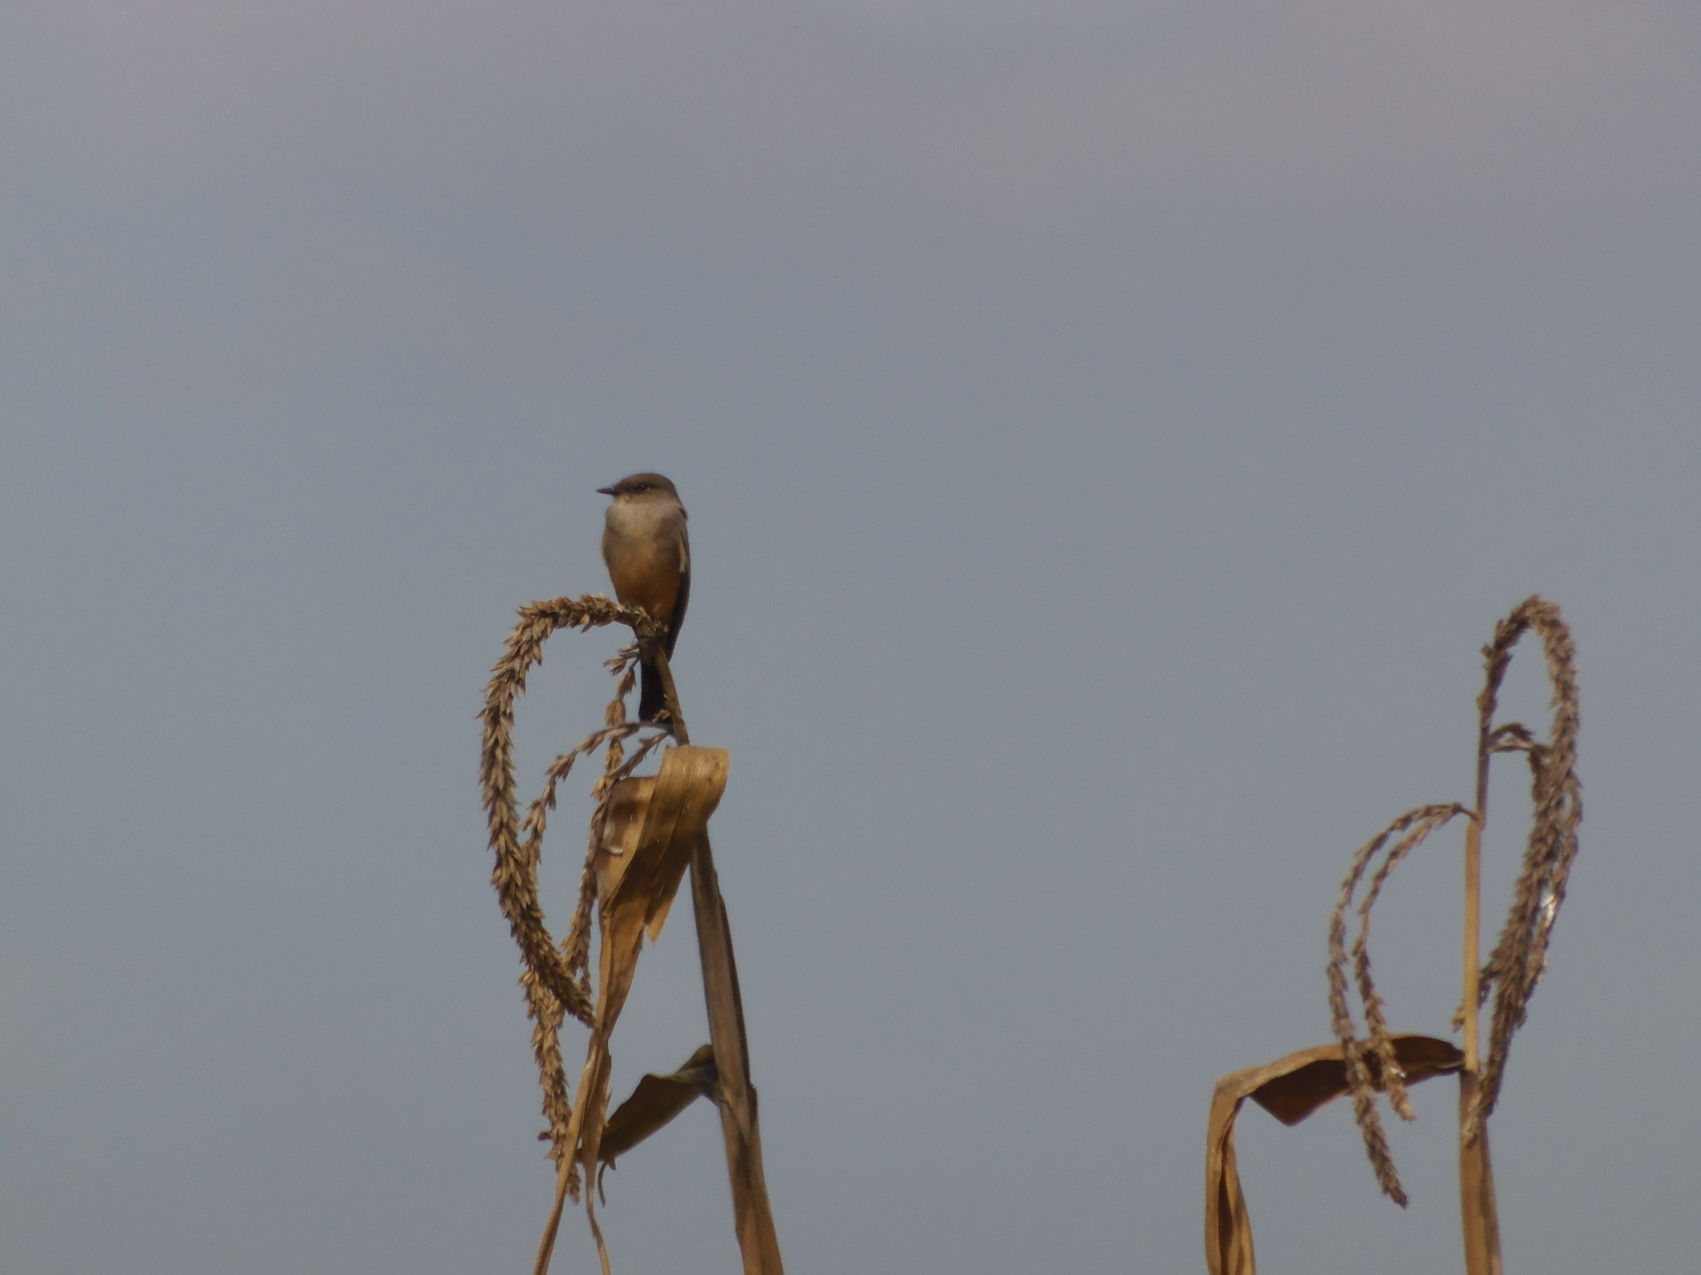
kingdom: Animalia
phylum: Chordata
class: Aves
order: Passeriformes
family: Tyrannidae
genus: Sayornis
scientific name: Sayornis saya
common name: Say's phoebe
